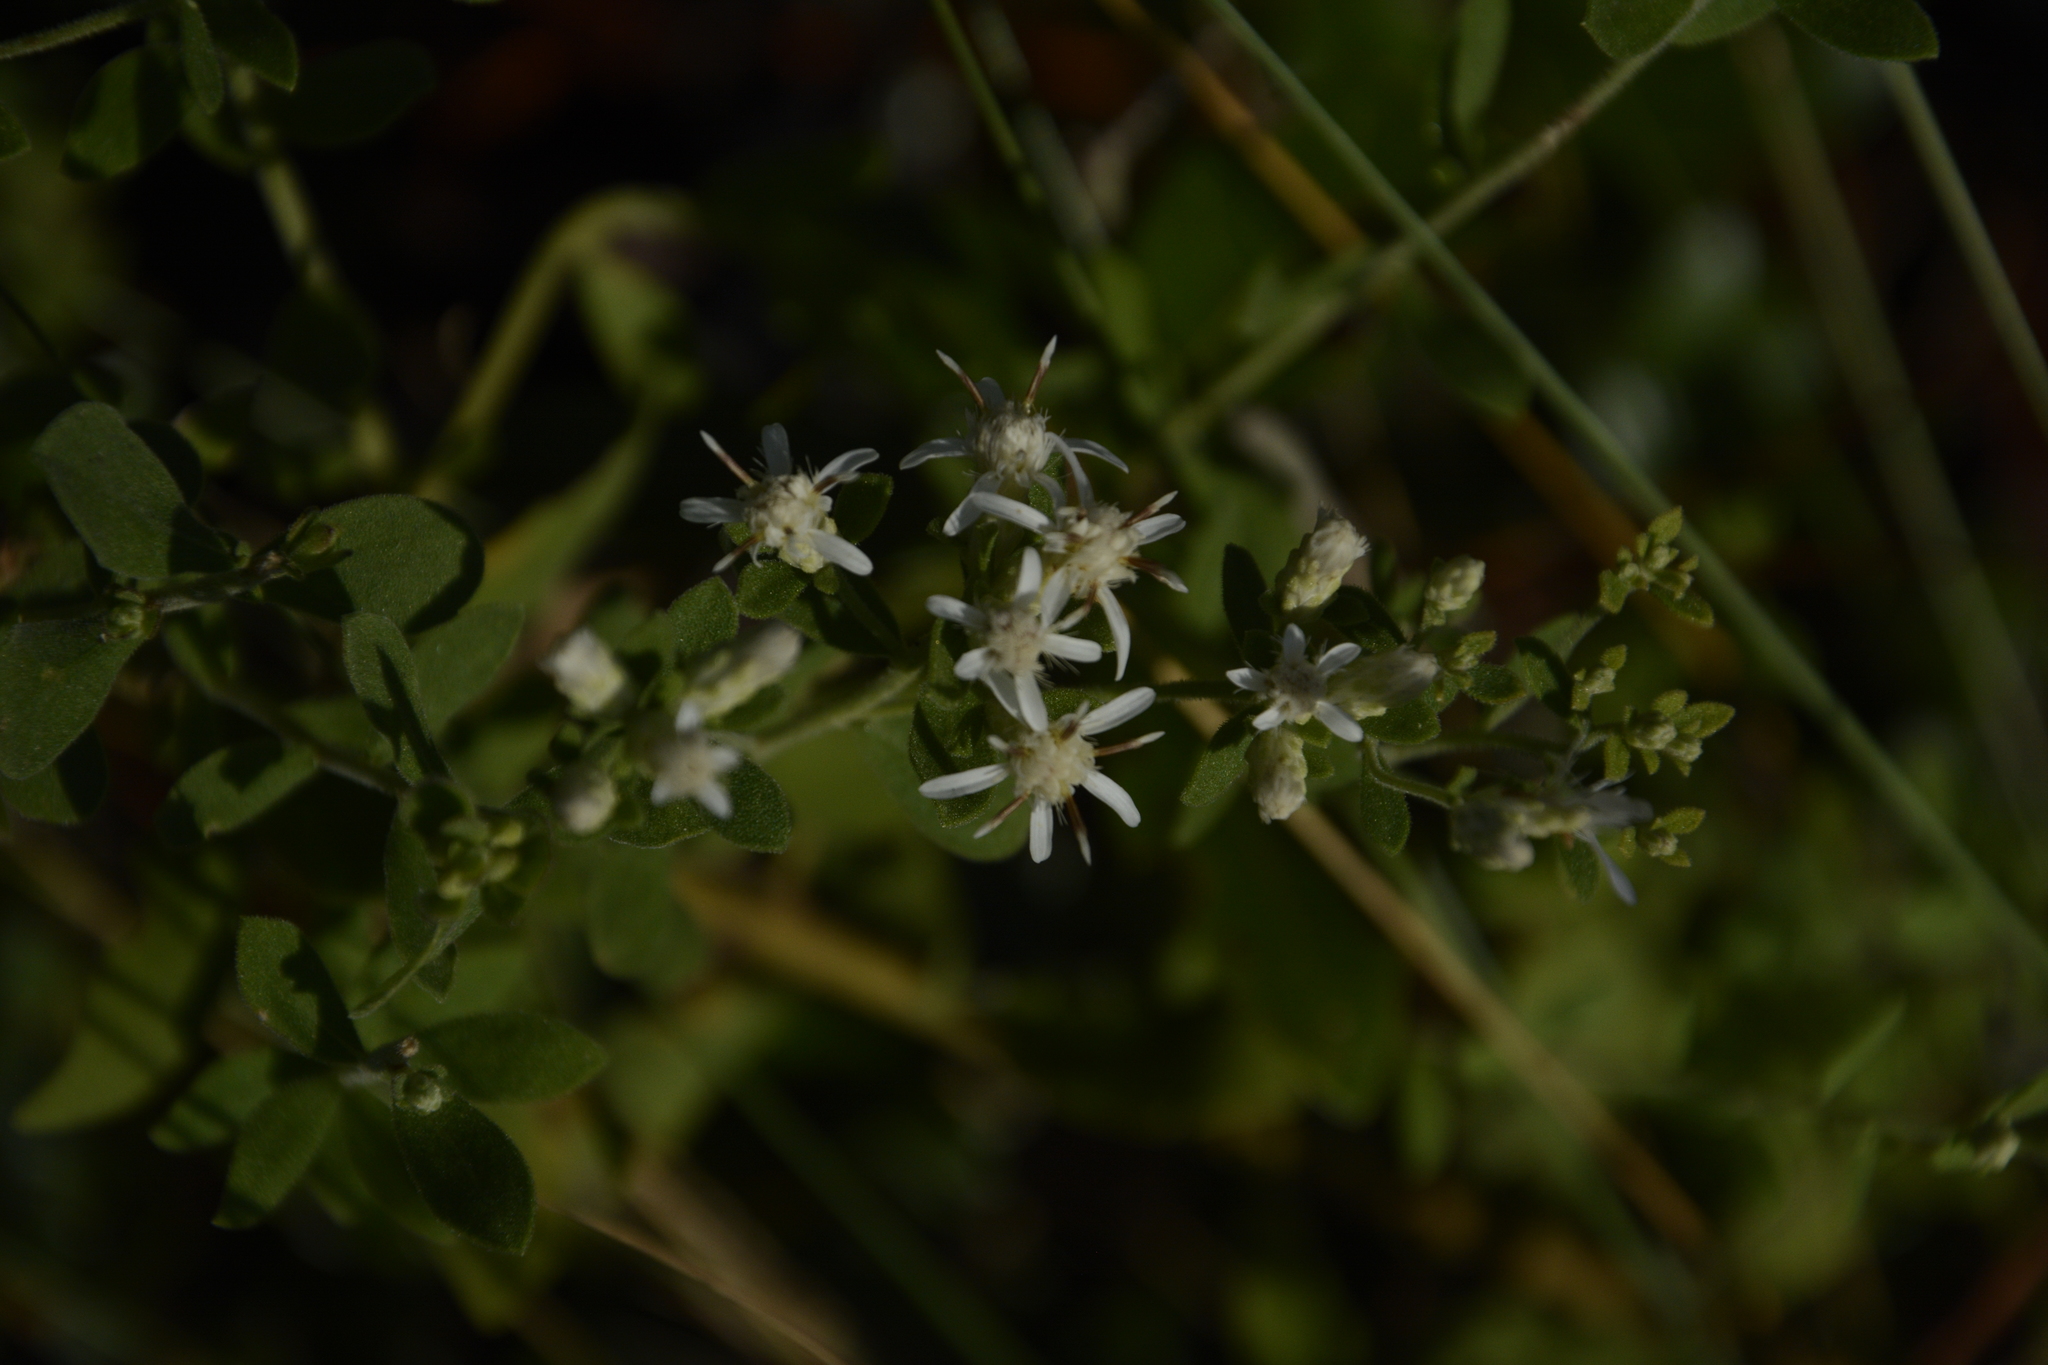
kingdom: Plantae
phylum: Tracheophyta
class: Magnoliopsida
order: Asterales
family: Asteraceae
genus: Sericocarpus
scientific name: Sericocarpus tortifolius
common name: Dixie aster
